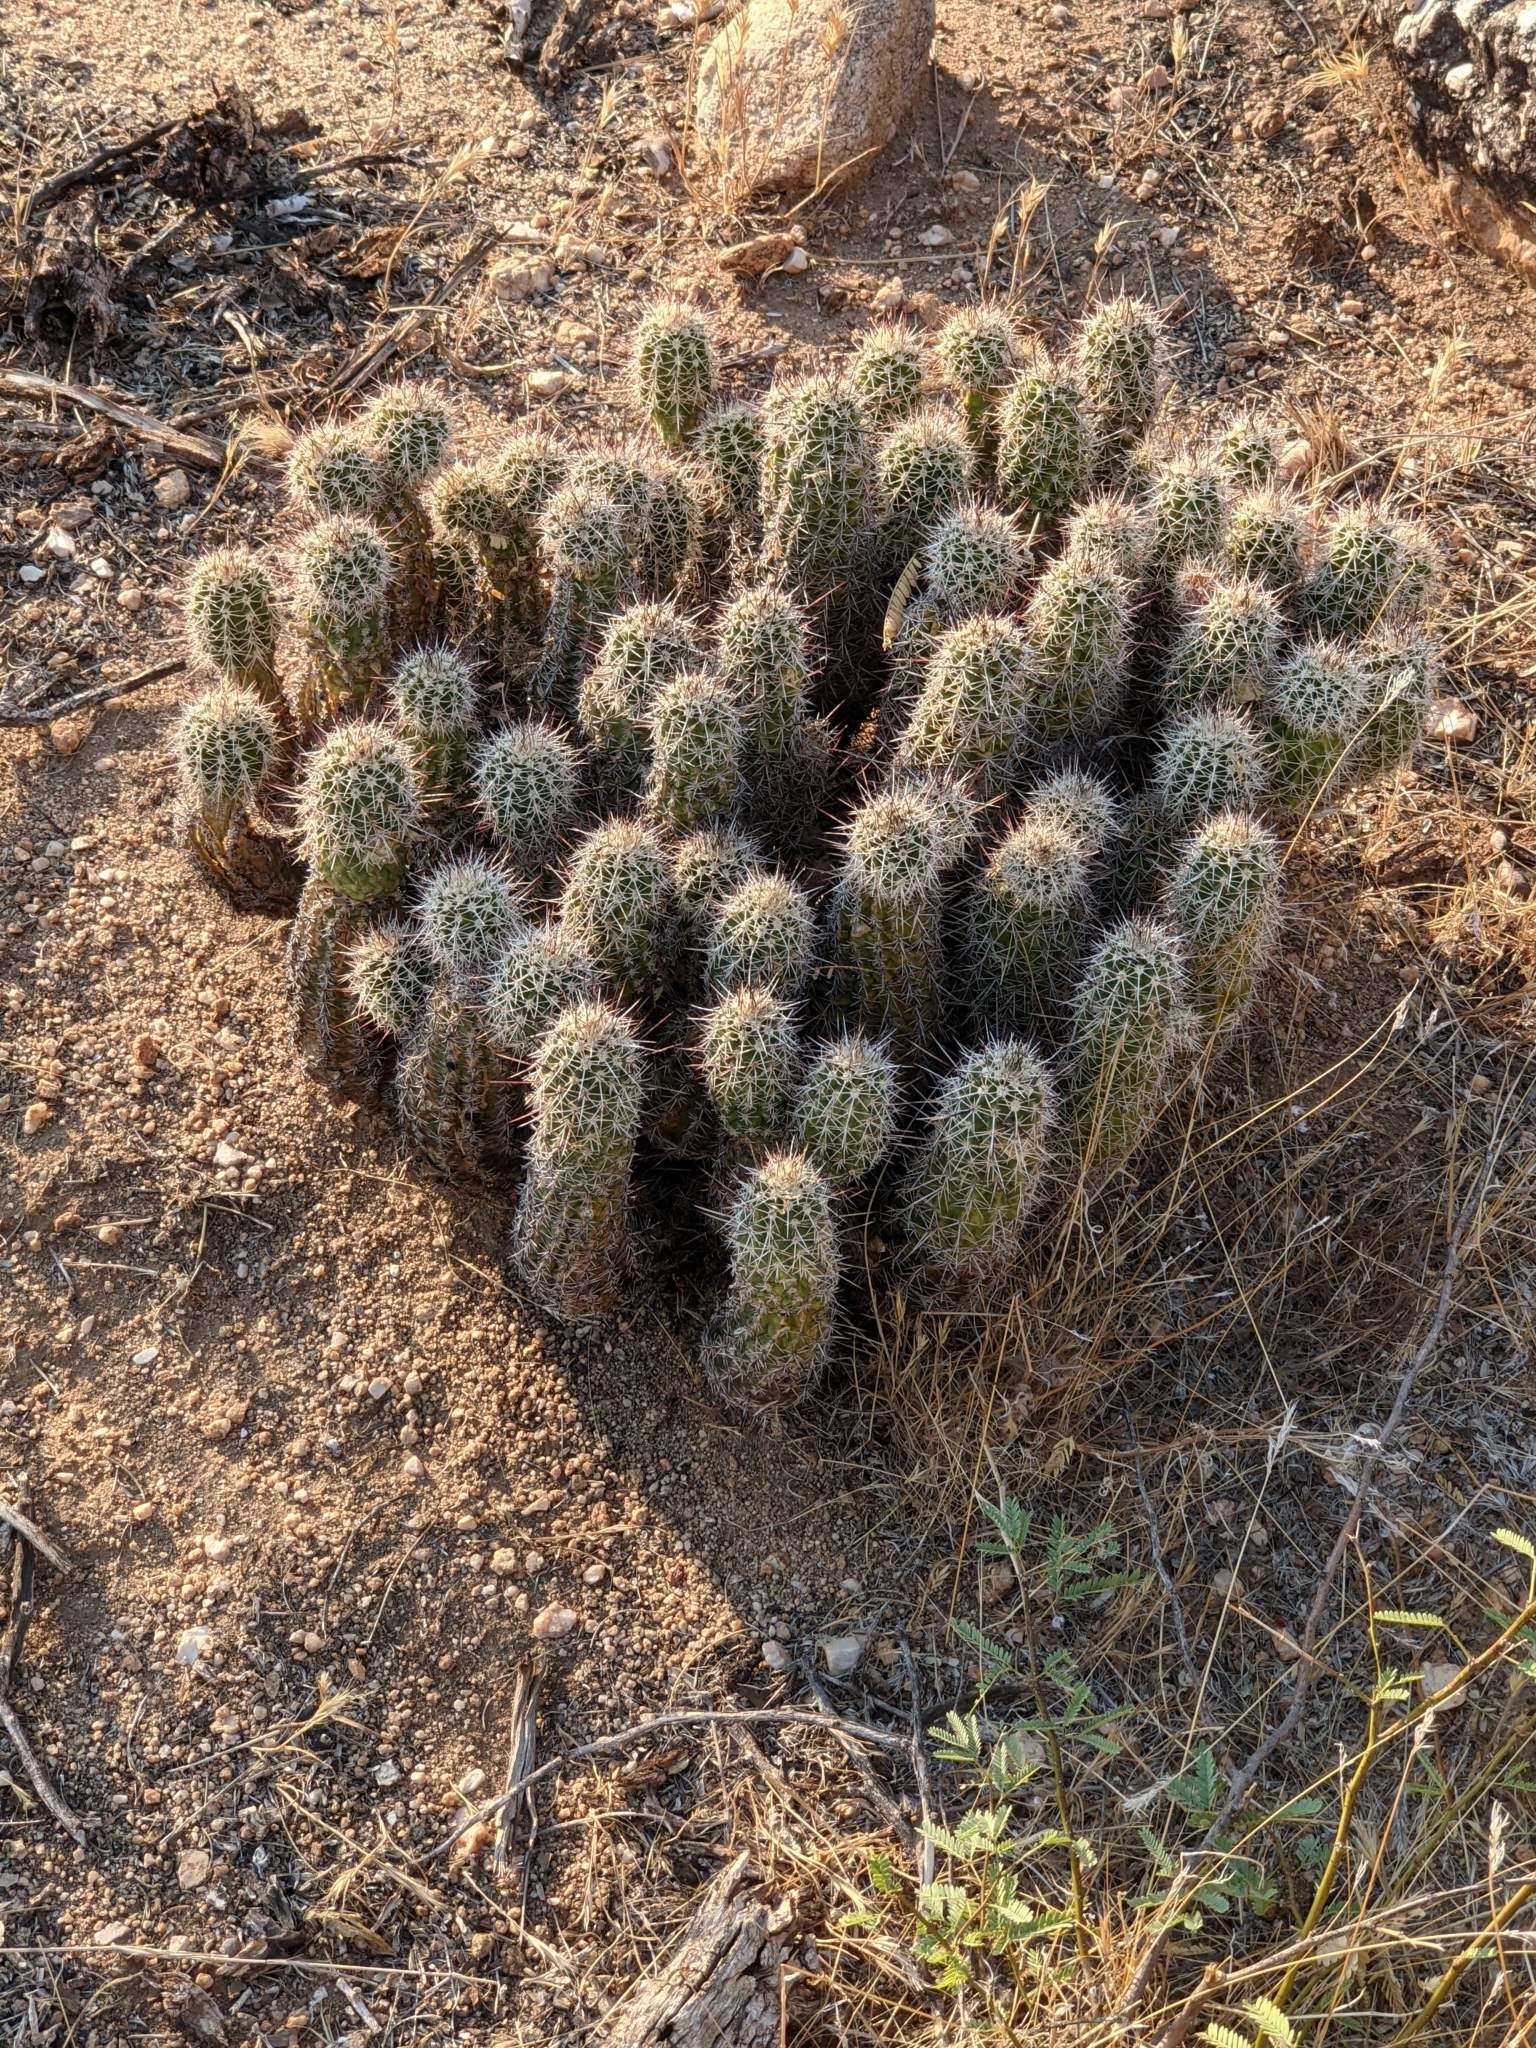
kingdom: Plantae
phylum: Tracheophyta
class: Magnoliopsida
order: Caryophyllales
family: Cactaceae
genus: Echinocereus
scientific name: Echinocereus fasciculatus
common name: Bundle hedgehog
